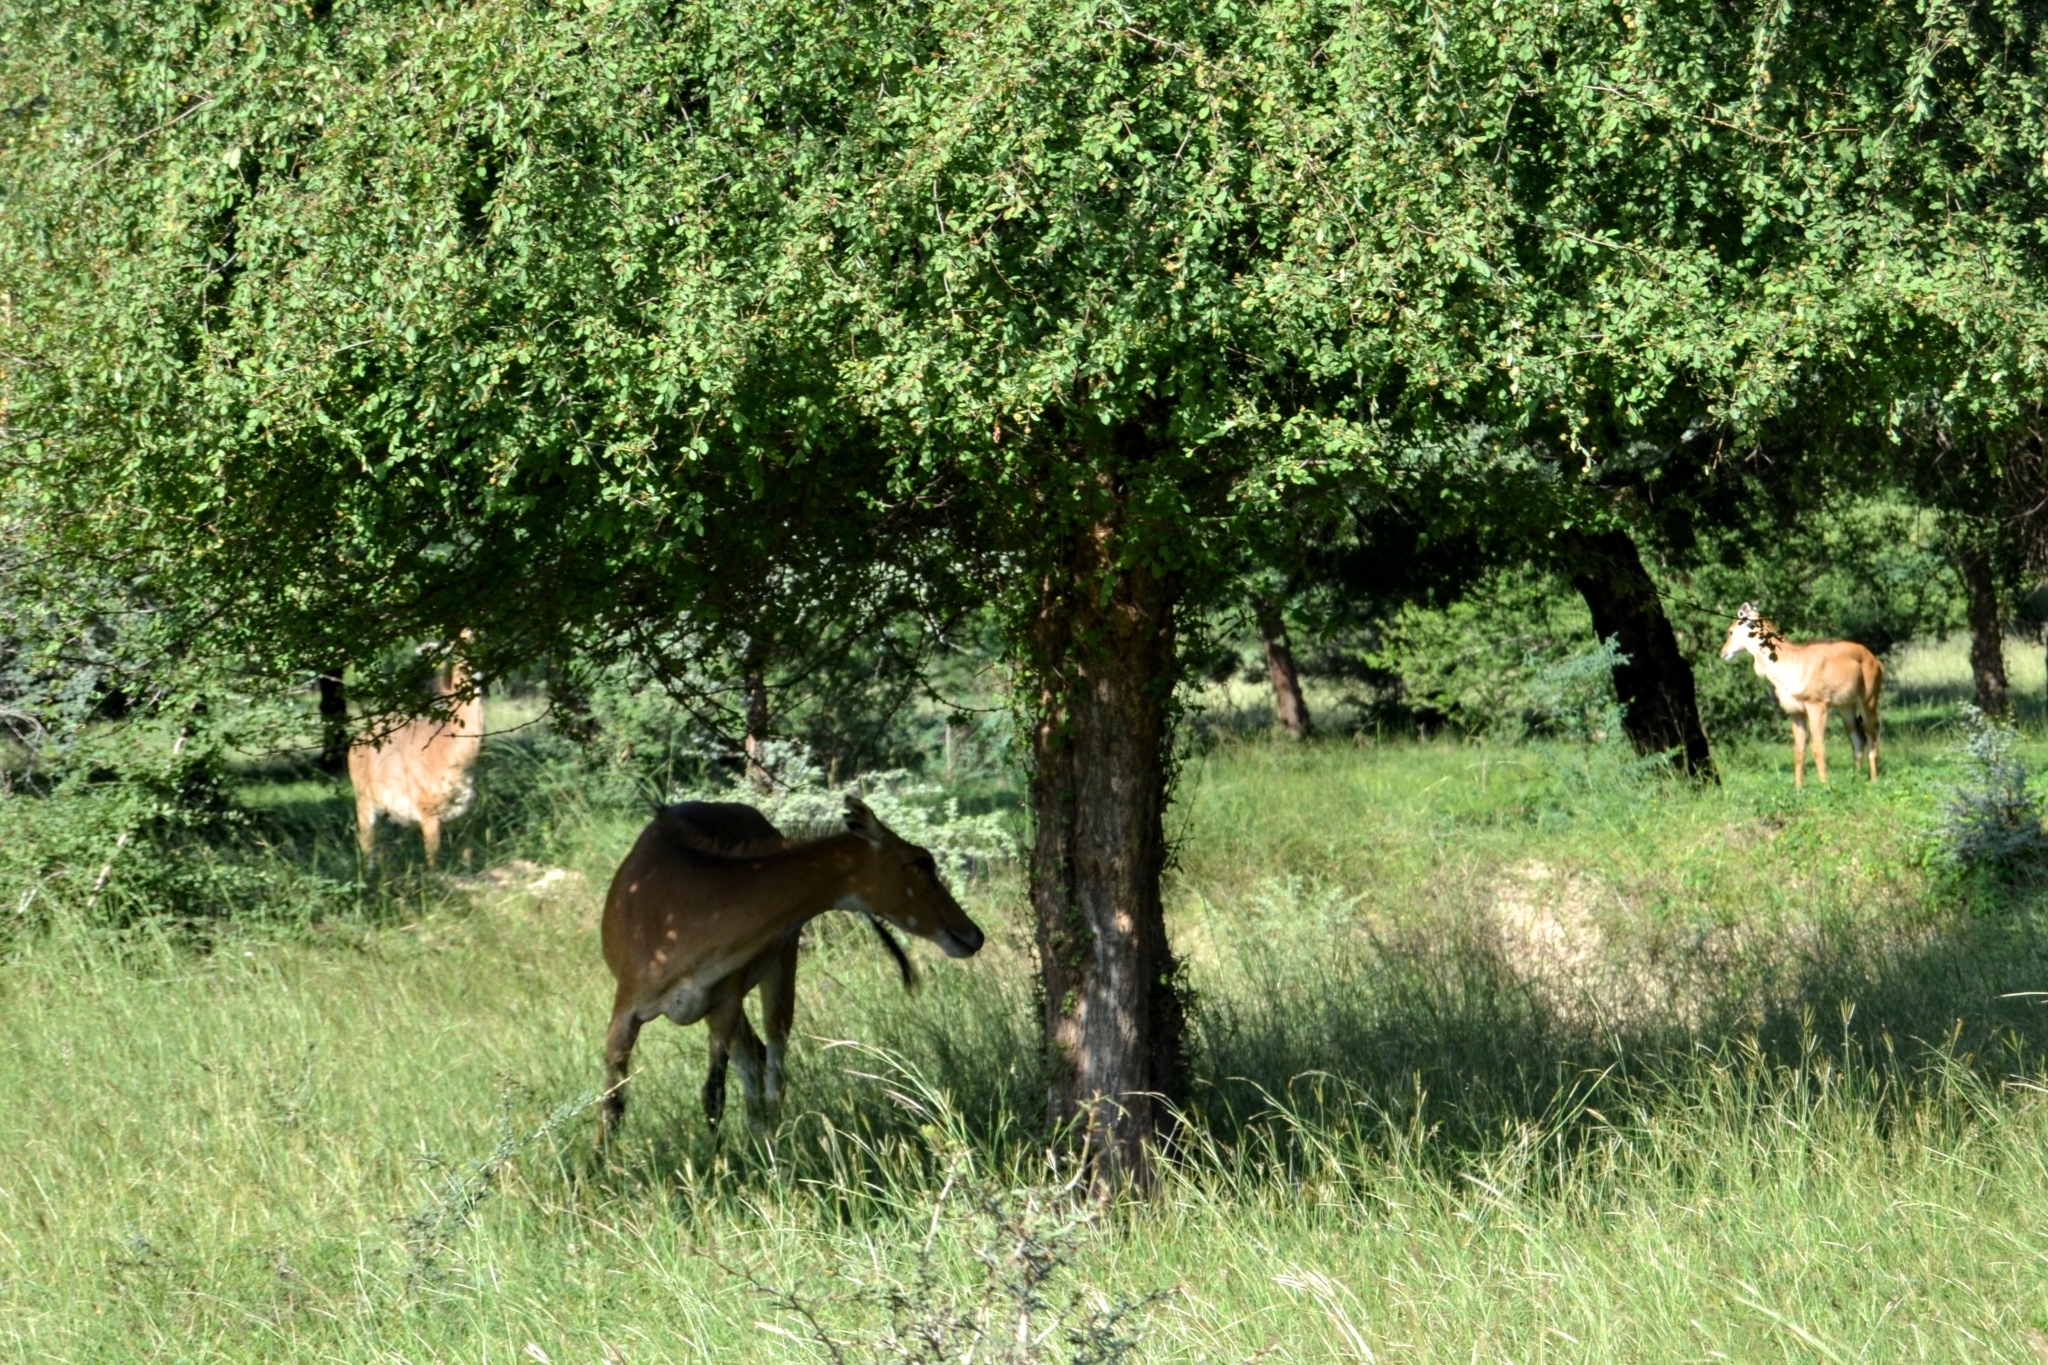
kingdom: Animalia
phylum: Chordata
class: Mammalia
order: Artiodactyla
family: Bovidae
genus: Boselaphus
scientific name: Boselaphus tragocamelus
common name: Nilgai
